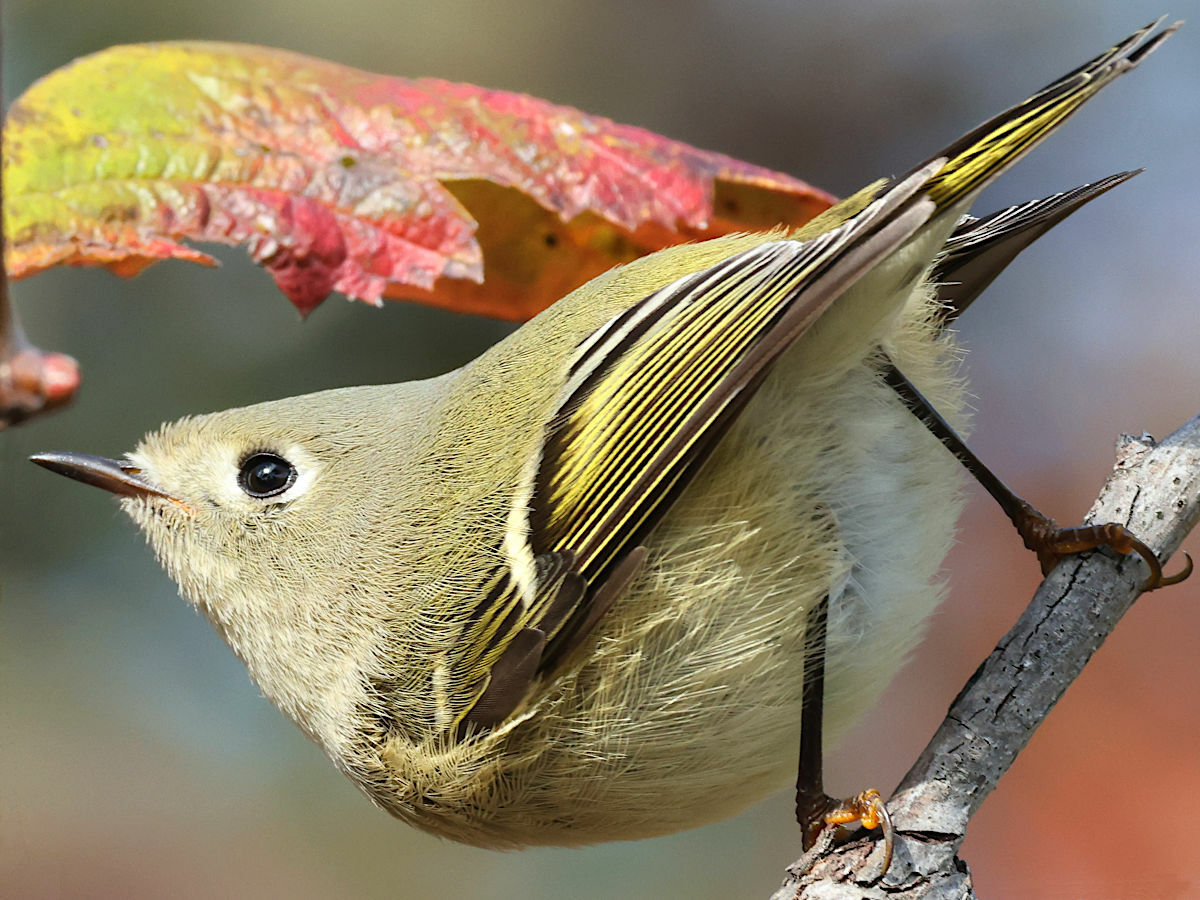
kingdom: Animalia
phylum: Chordata
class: Aves
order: Passeriformes
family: Regulidae
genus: Regulus
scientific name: Regulus calendula
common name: Ruby-crowned kinglet
